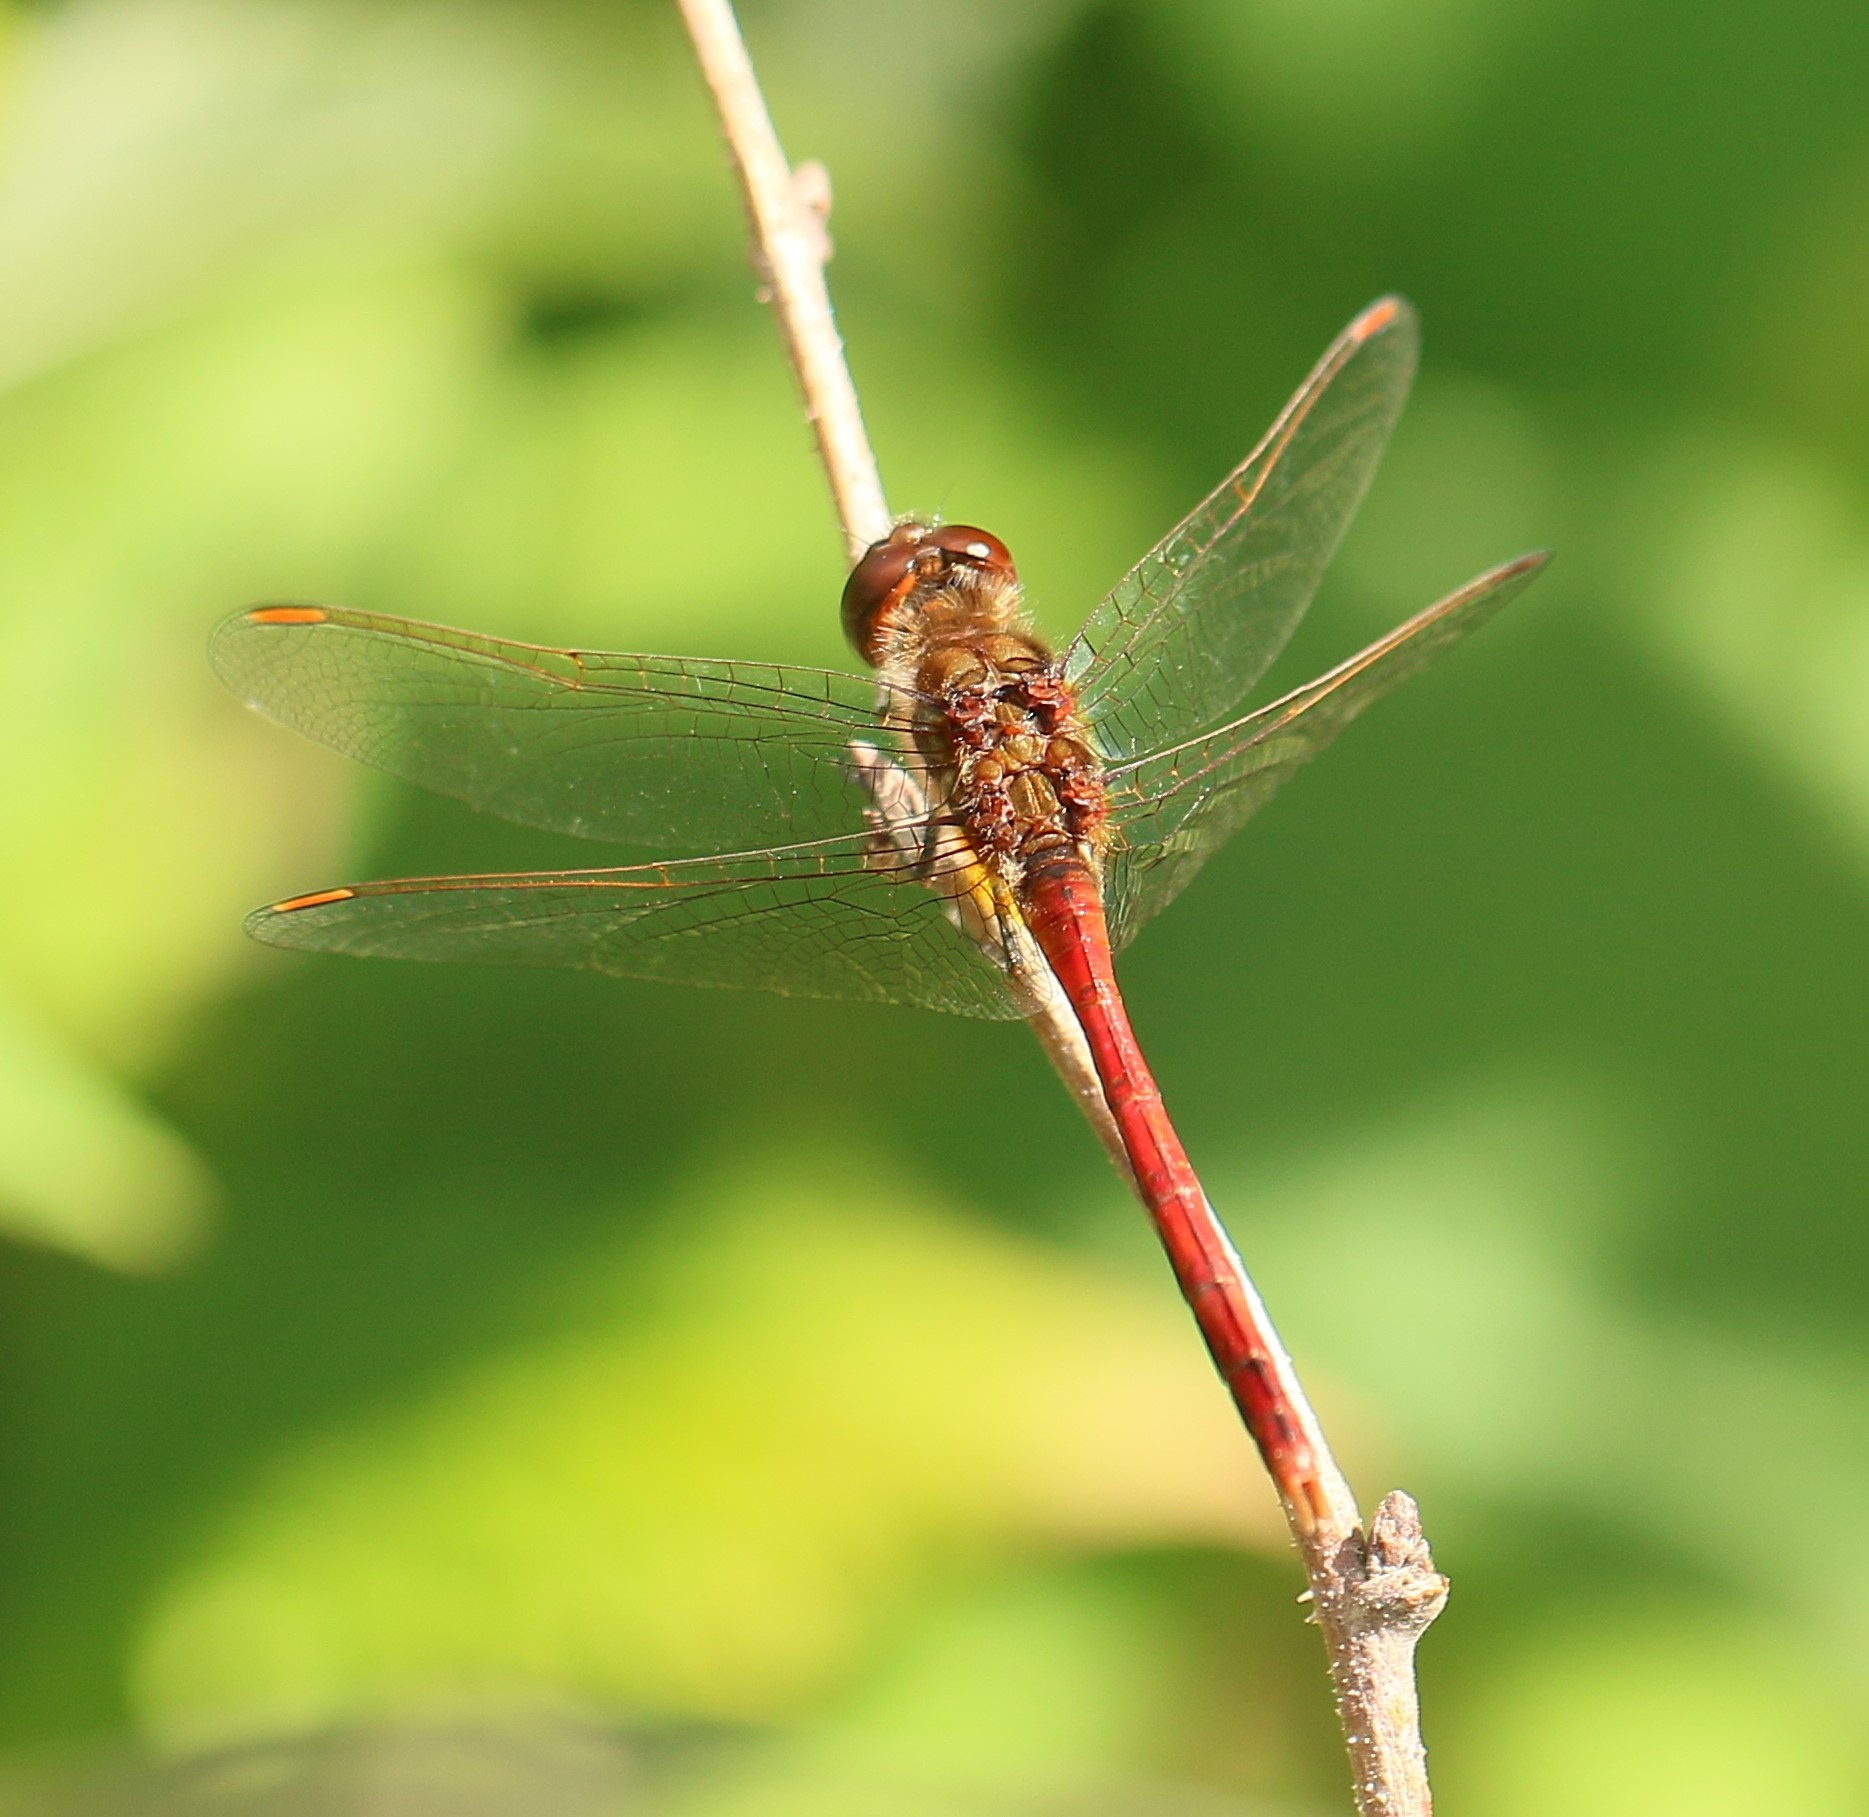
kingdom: Animalia
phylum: Arthropoda
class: Insecta
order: Odonata
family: Libellulidae
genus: Sympetrum
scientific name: Sympetrum costiferum
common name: Saffron-winged meadowhawk
